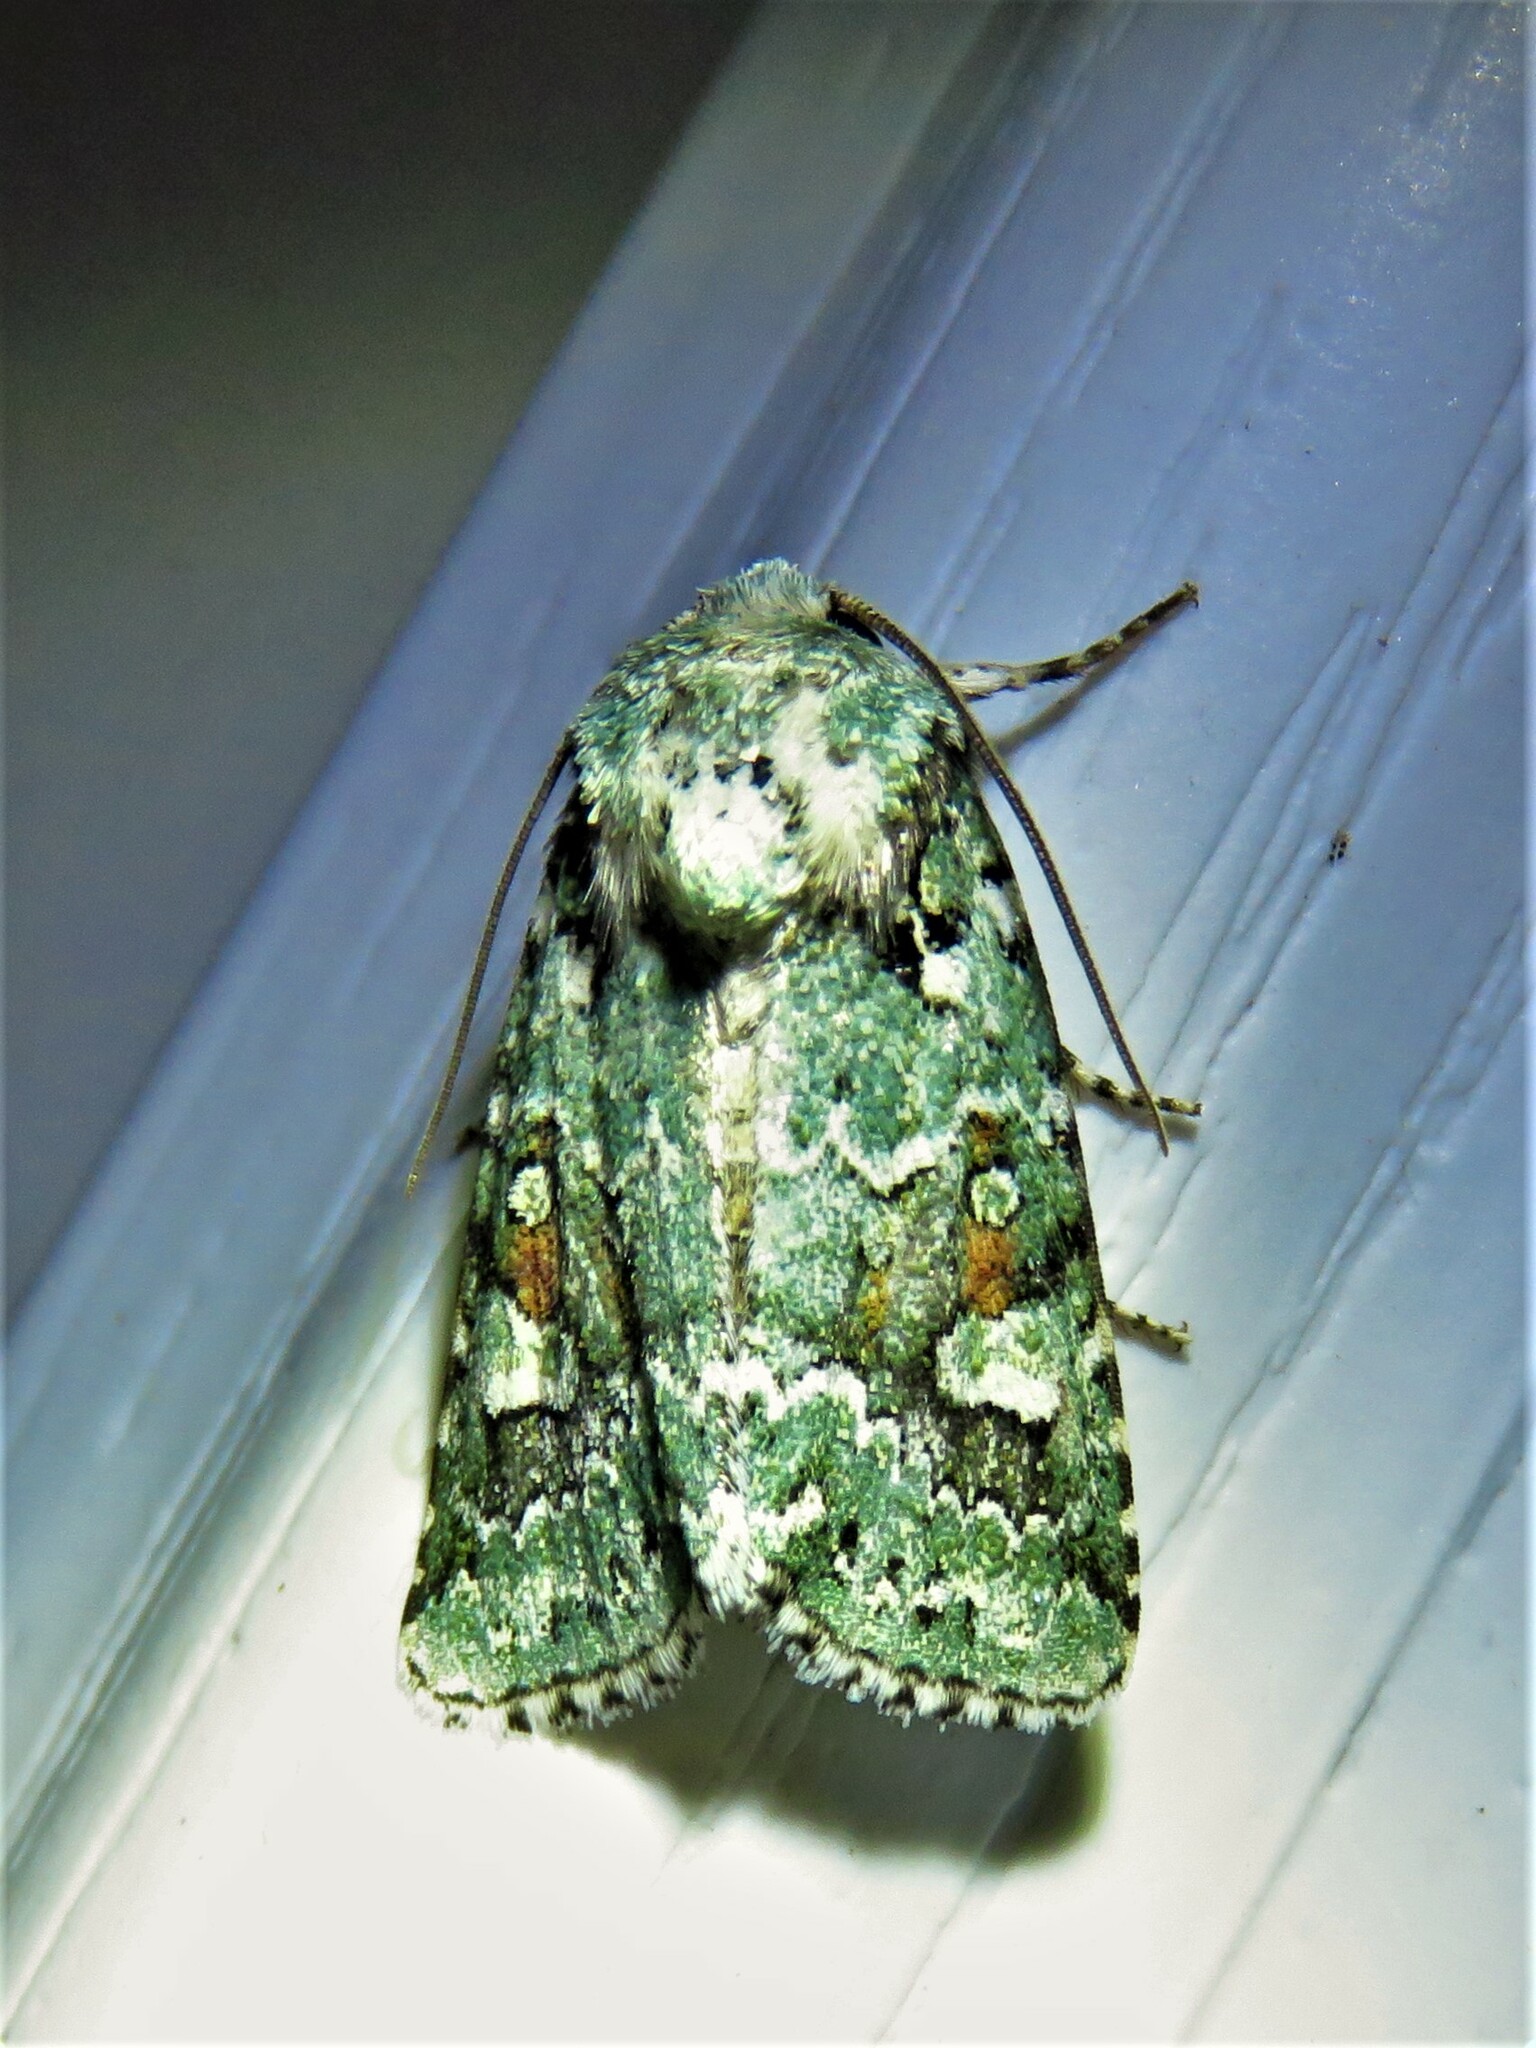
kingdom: Animalia
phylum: Arthropoda
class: Insecta
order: Lepidoptera
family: Noctuidae
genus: Lacinipolia
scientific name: Lacinipolia laudabilis
